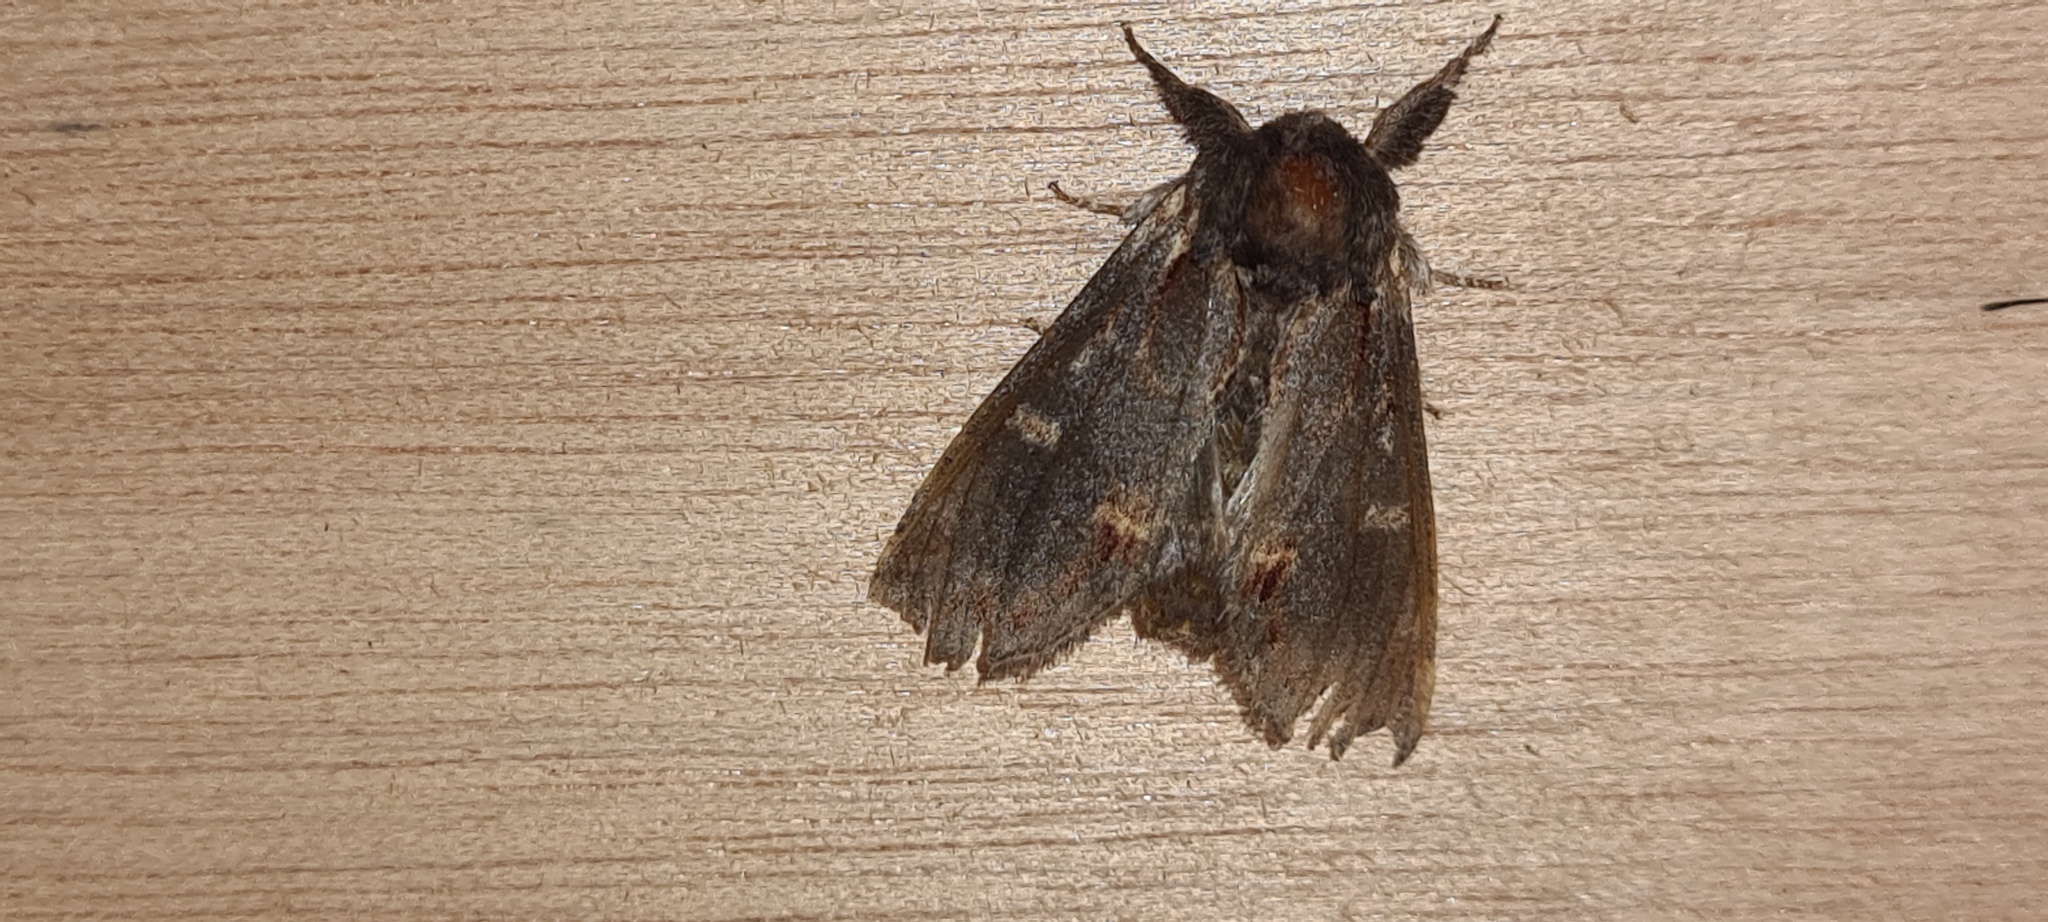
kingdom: Animalia
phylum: Arthropoda
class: Insecta
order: Lepidoptera
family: Notodontidae
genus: Notodonta
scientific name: Notodonta dromedarius
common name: Iron prominent
